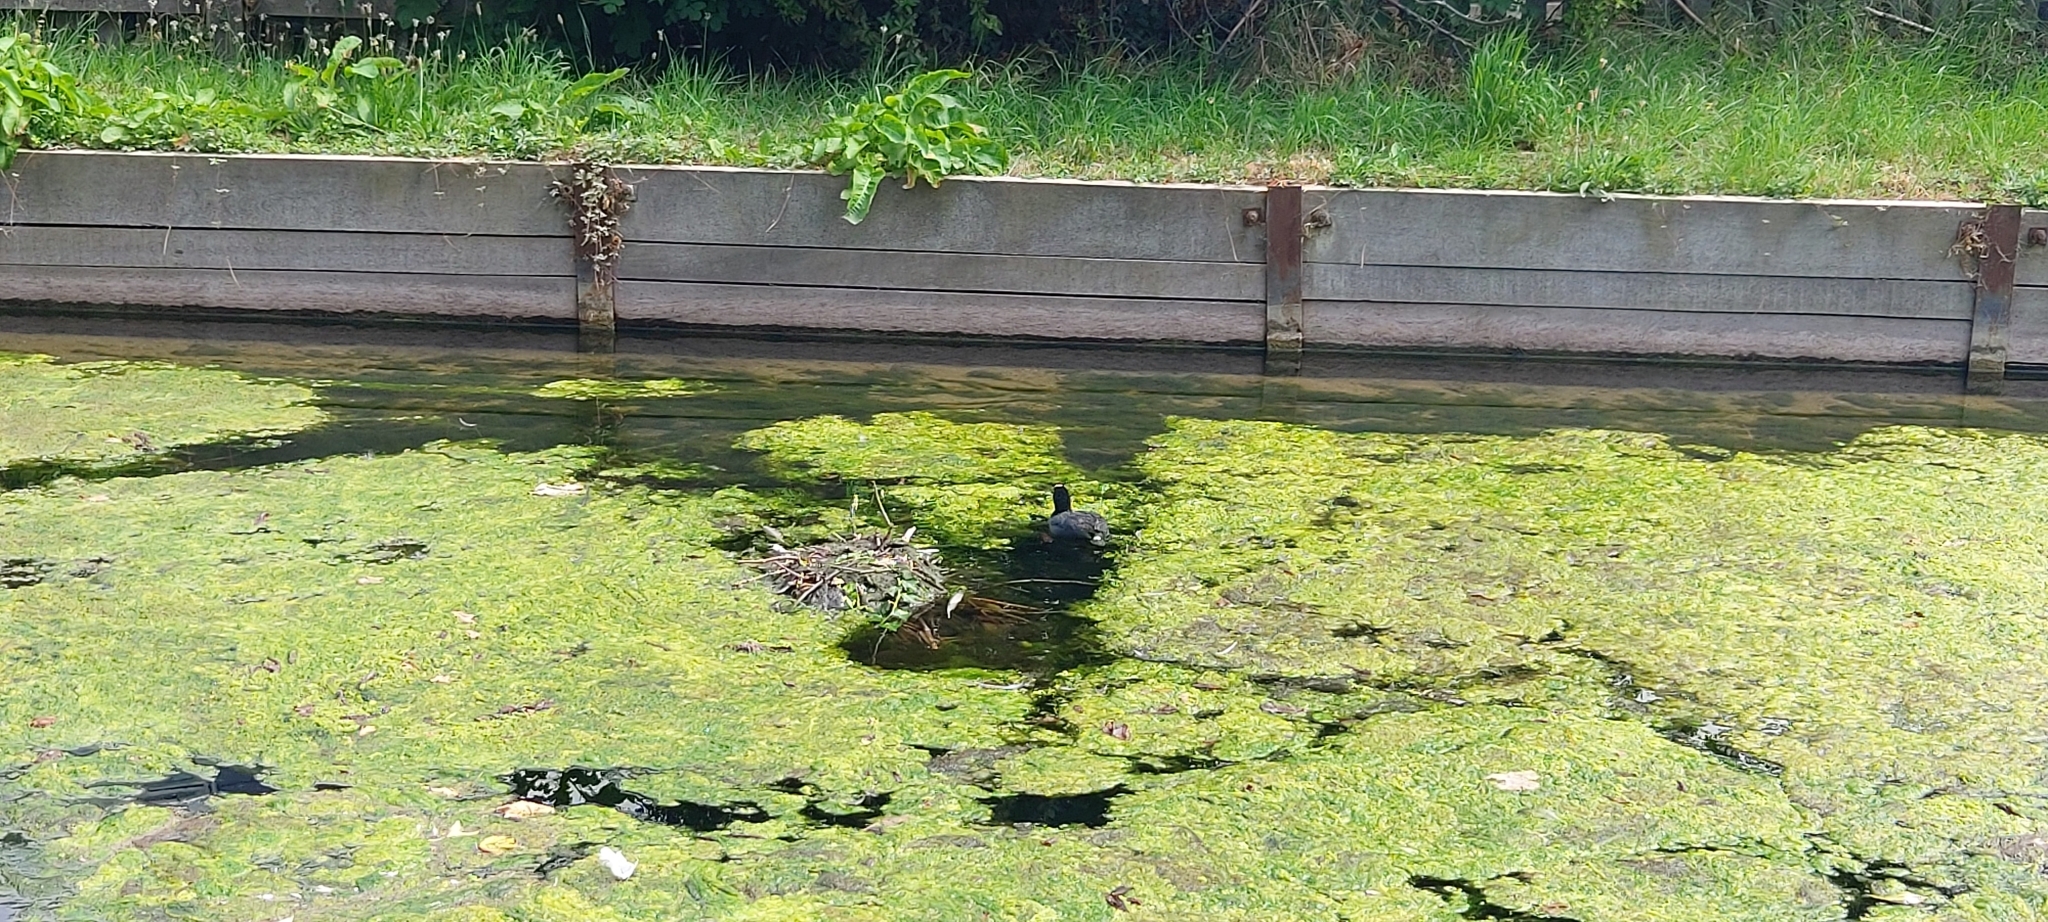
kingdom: Animalia
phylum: Chordata
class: Aves
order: Gruiformes
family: Rallidae
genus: Fulica
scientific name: Fulica atra
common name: Eurasian coot
